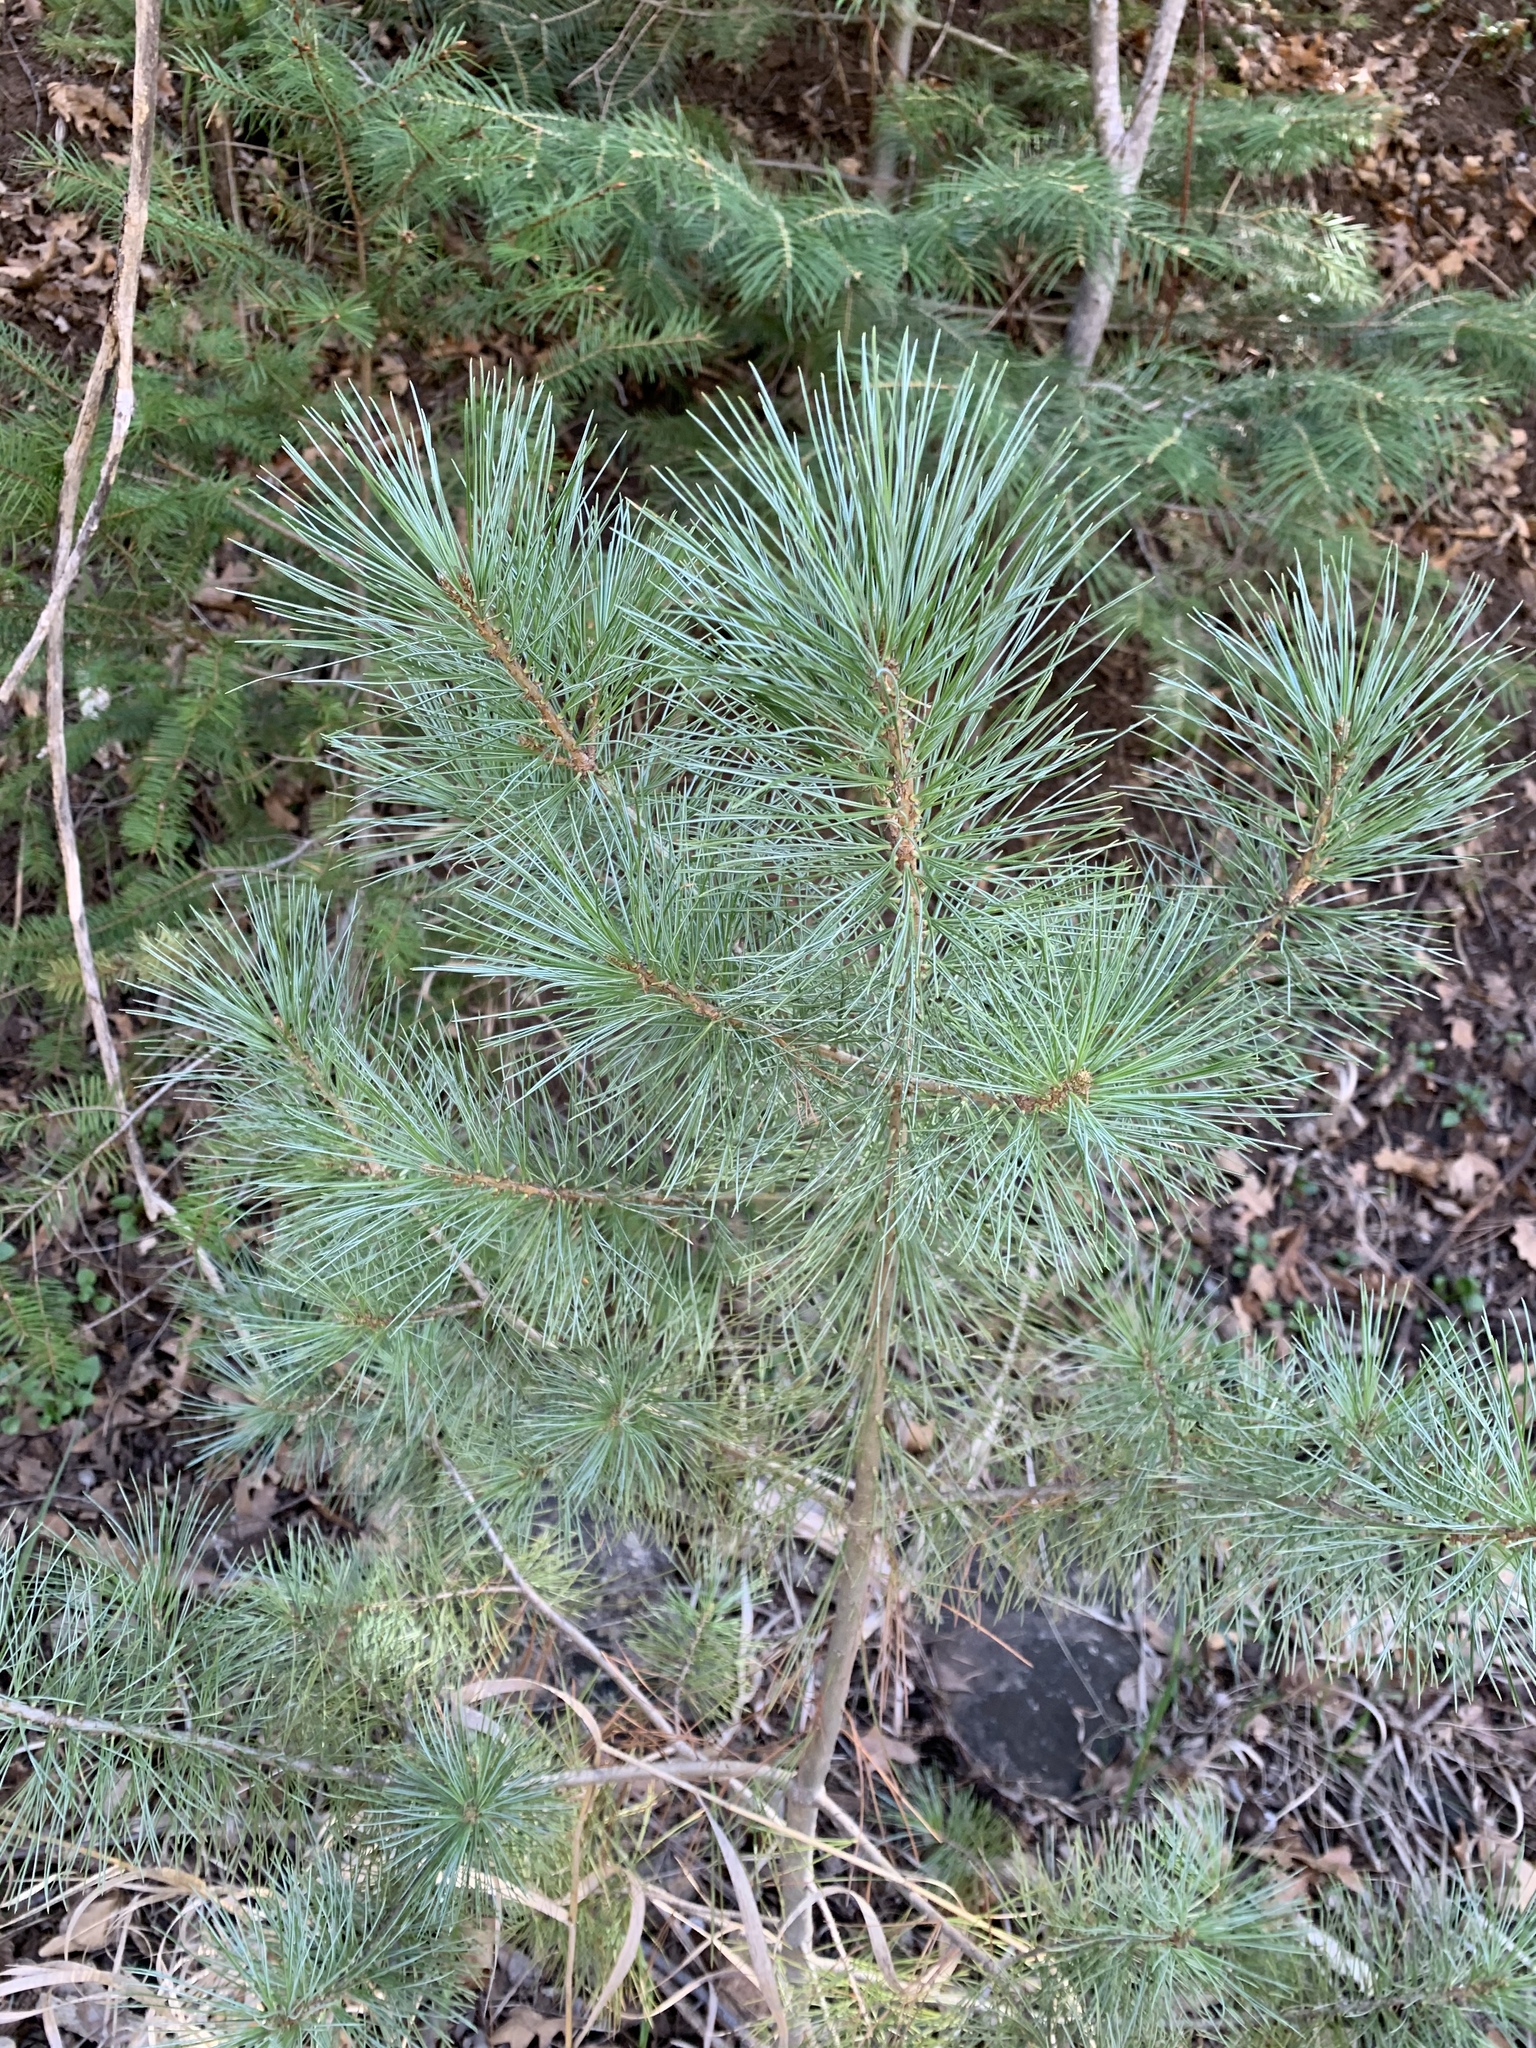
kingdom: Plantae
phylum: Tracheophyta
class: Pinopsida
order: Pinales
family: Pinaceae
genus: Pinus
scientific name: Pinus strobiformis
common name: Southwestern white pine
